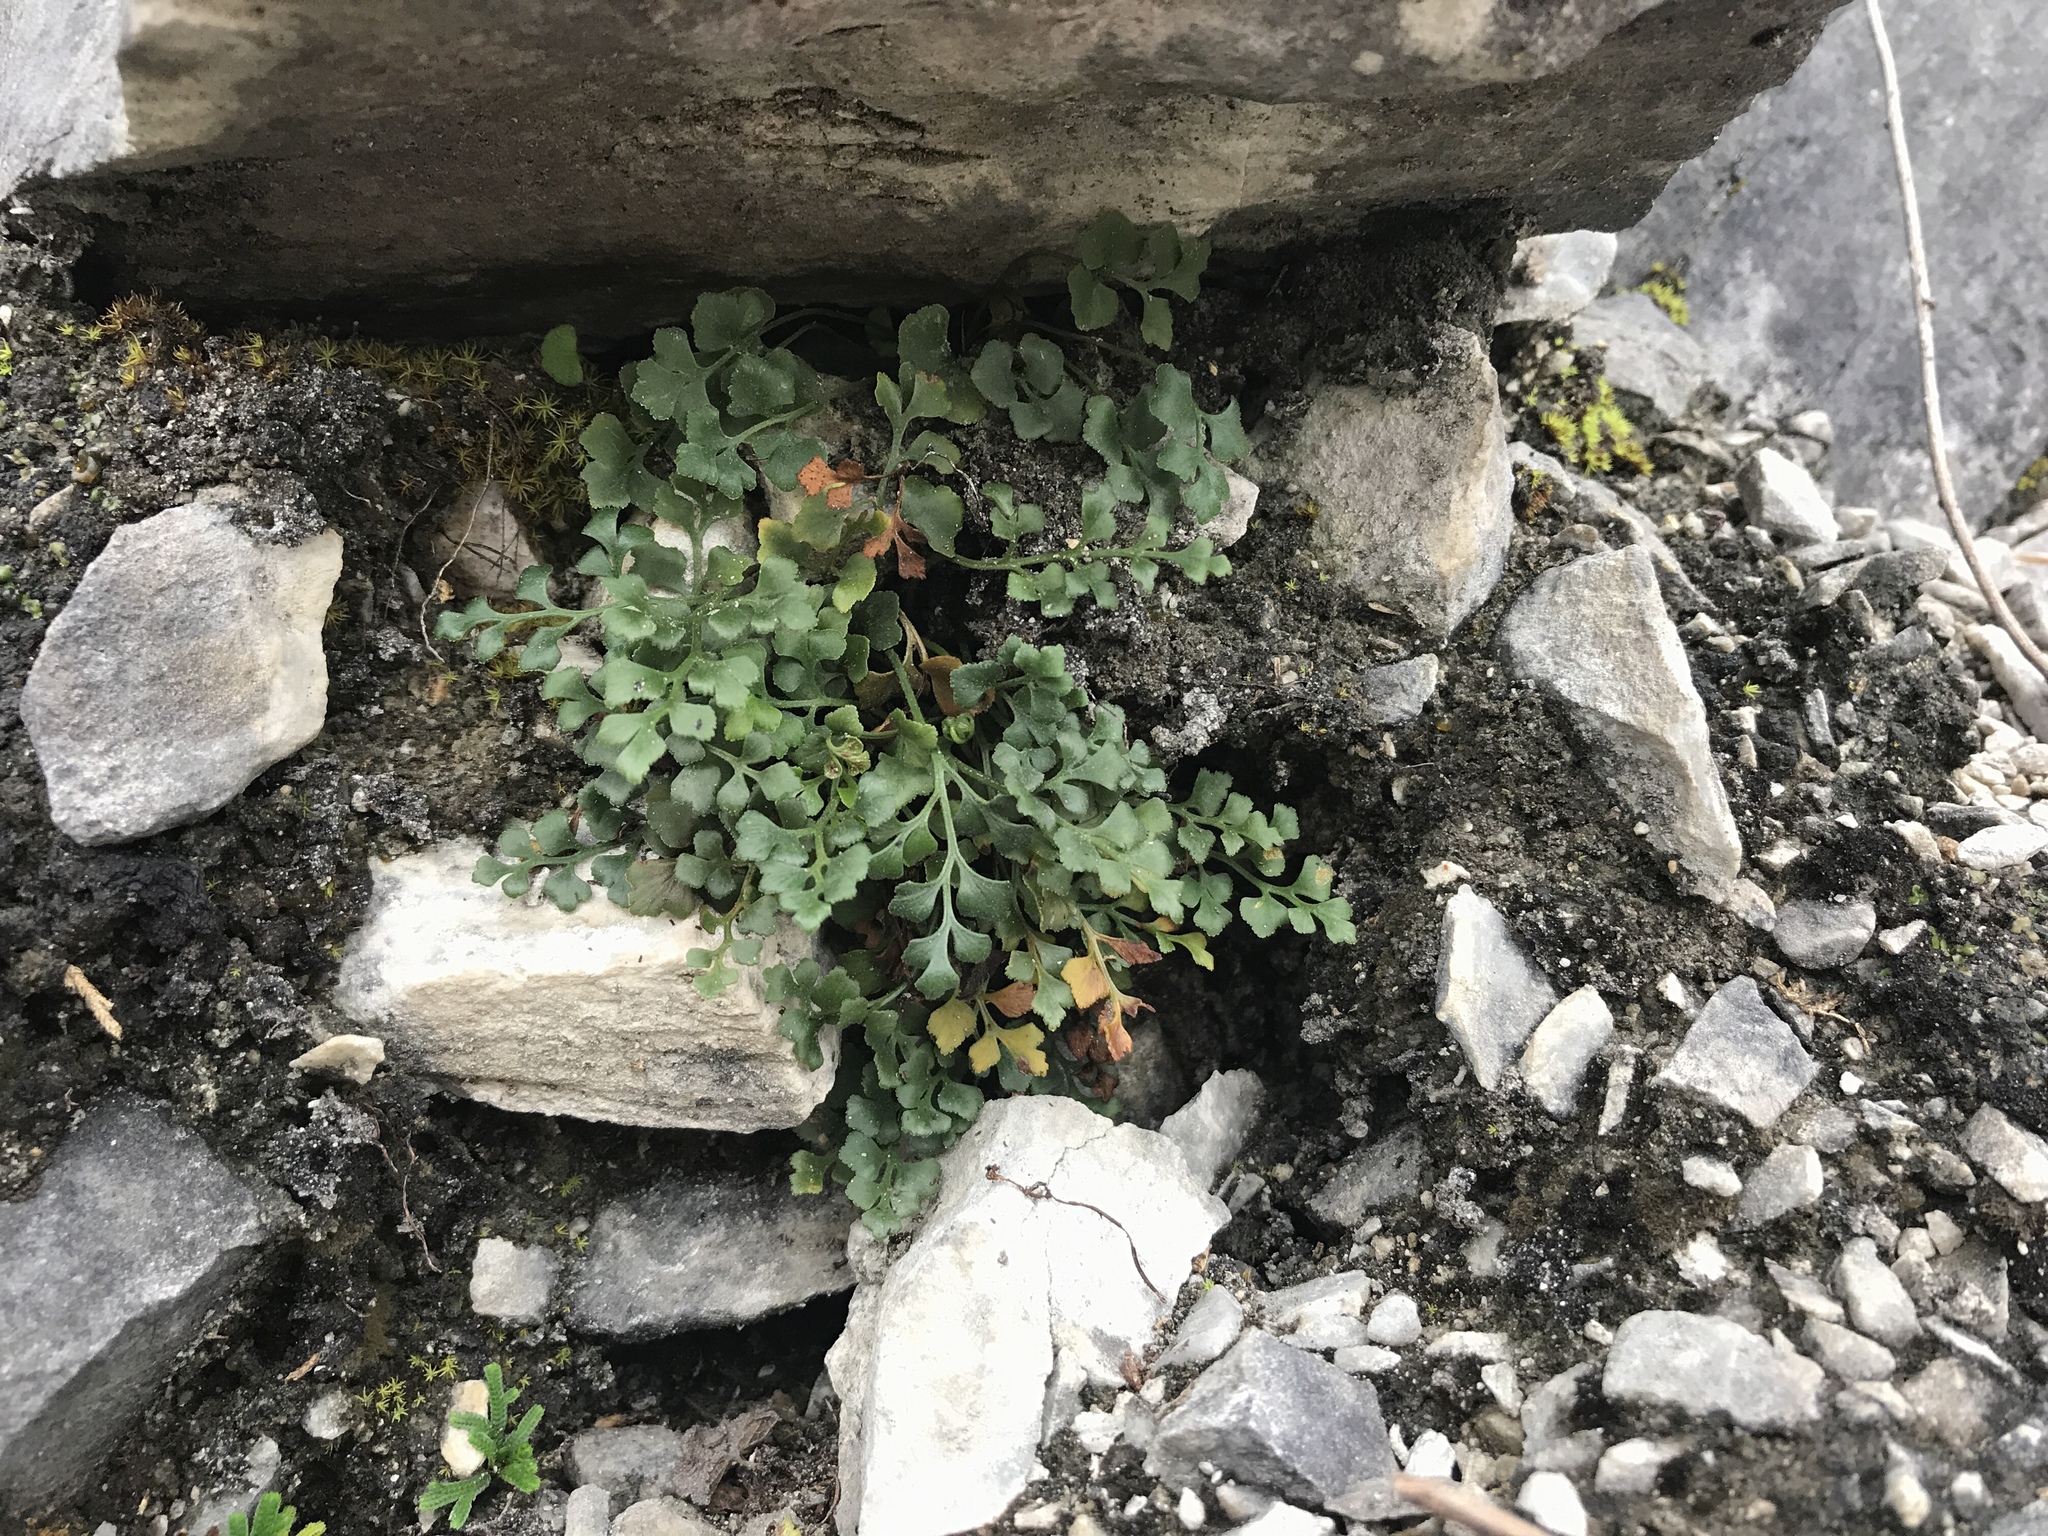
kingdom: Plantae
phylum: Tracheophyta
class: Polypodiopsida
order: Polypodiales
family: Aspleniaceae
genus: Asplenium
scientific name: Asplenium ruta-muraria
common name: Wall-rue
